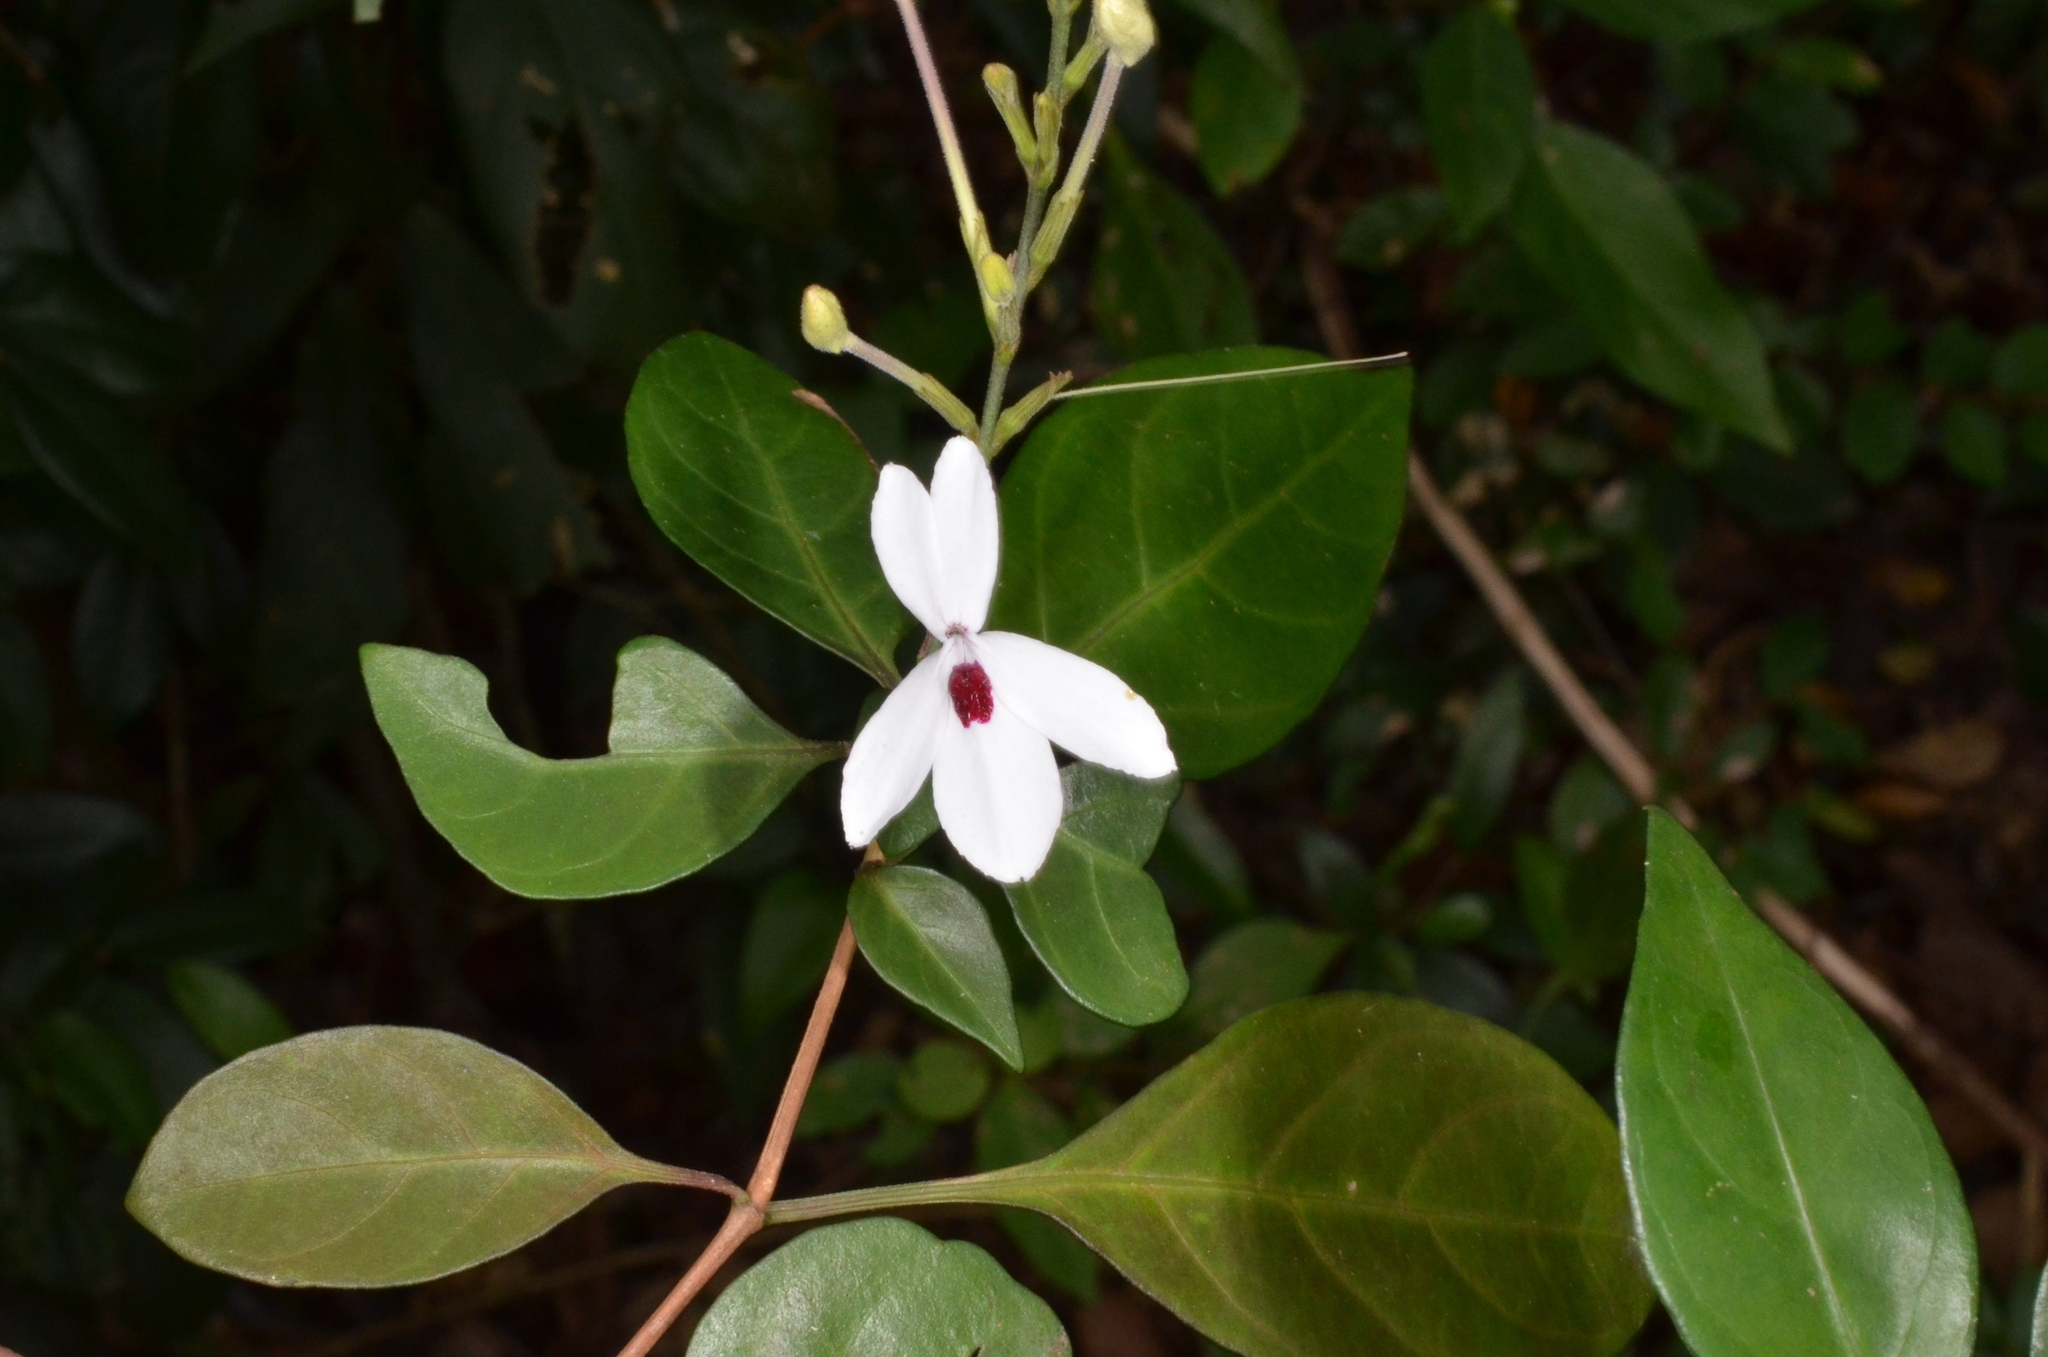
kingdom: Plantae
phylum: Tracheophyta
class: Magnoliopsida
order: Lamiales
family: Acanthaceae
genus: Pseuderanthemum
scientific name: Pseuderanthemum bicolor
